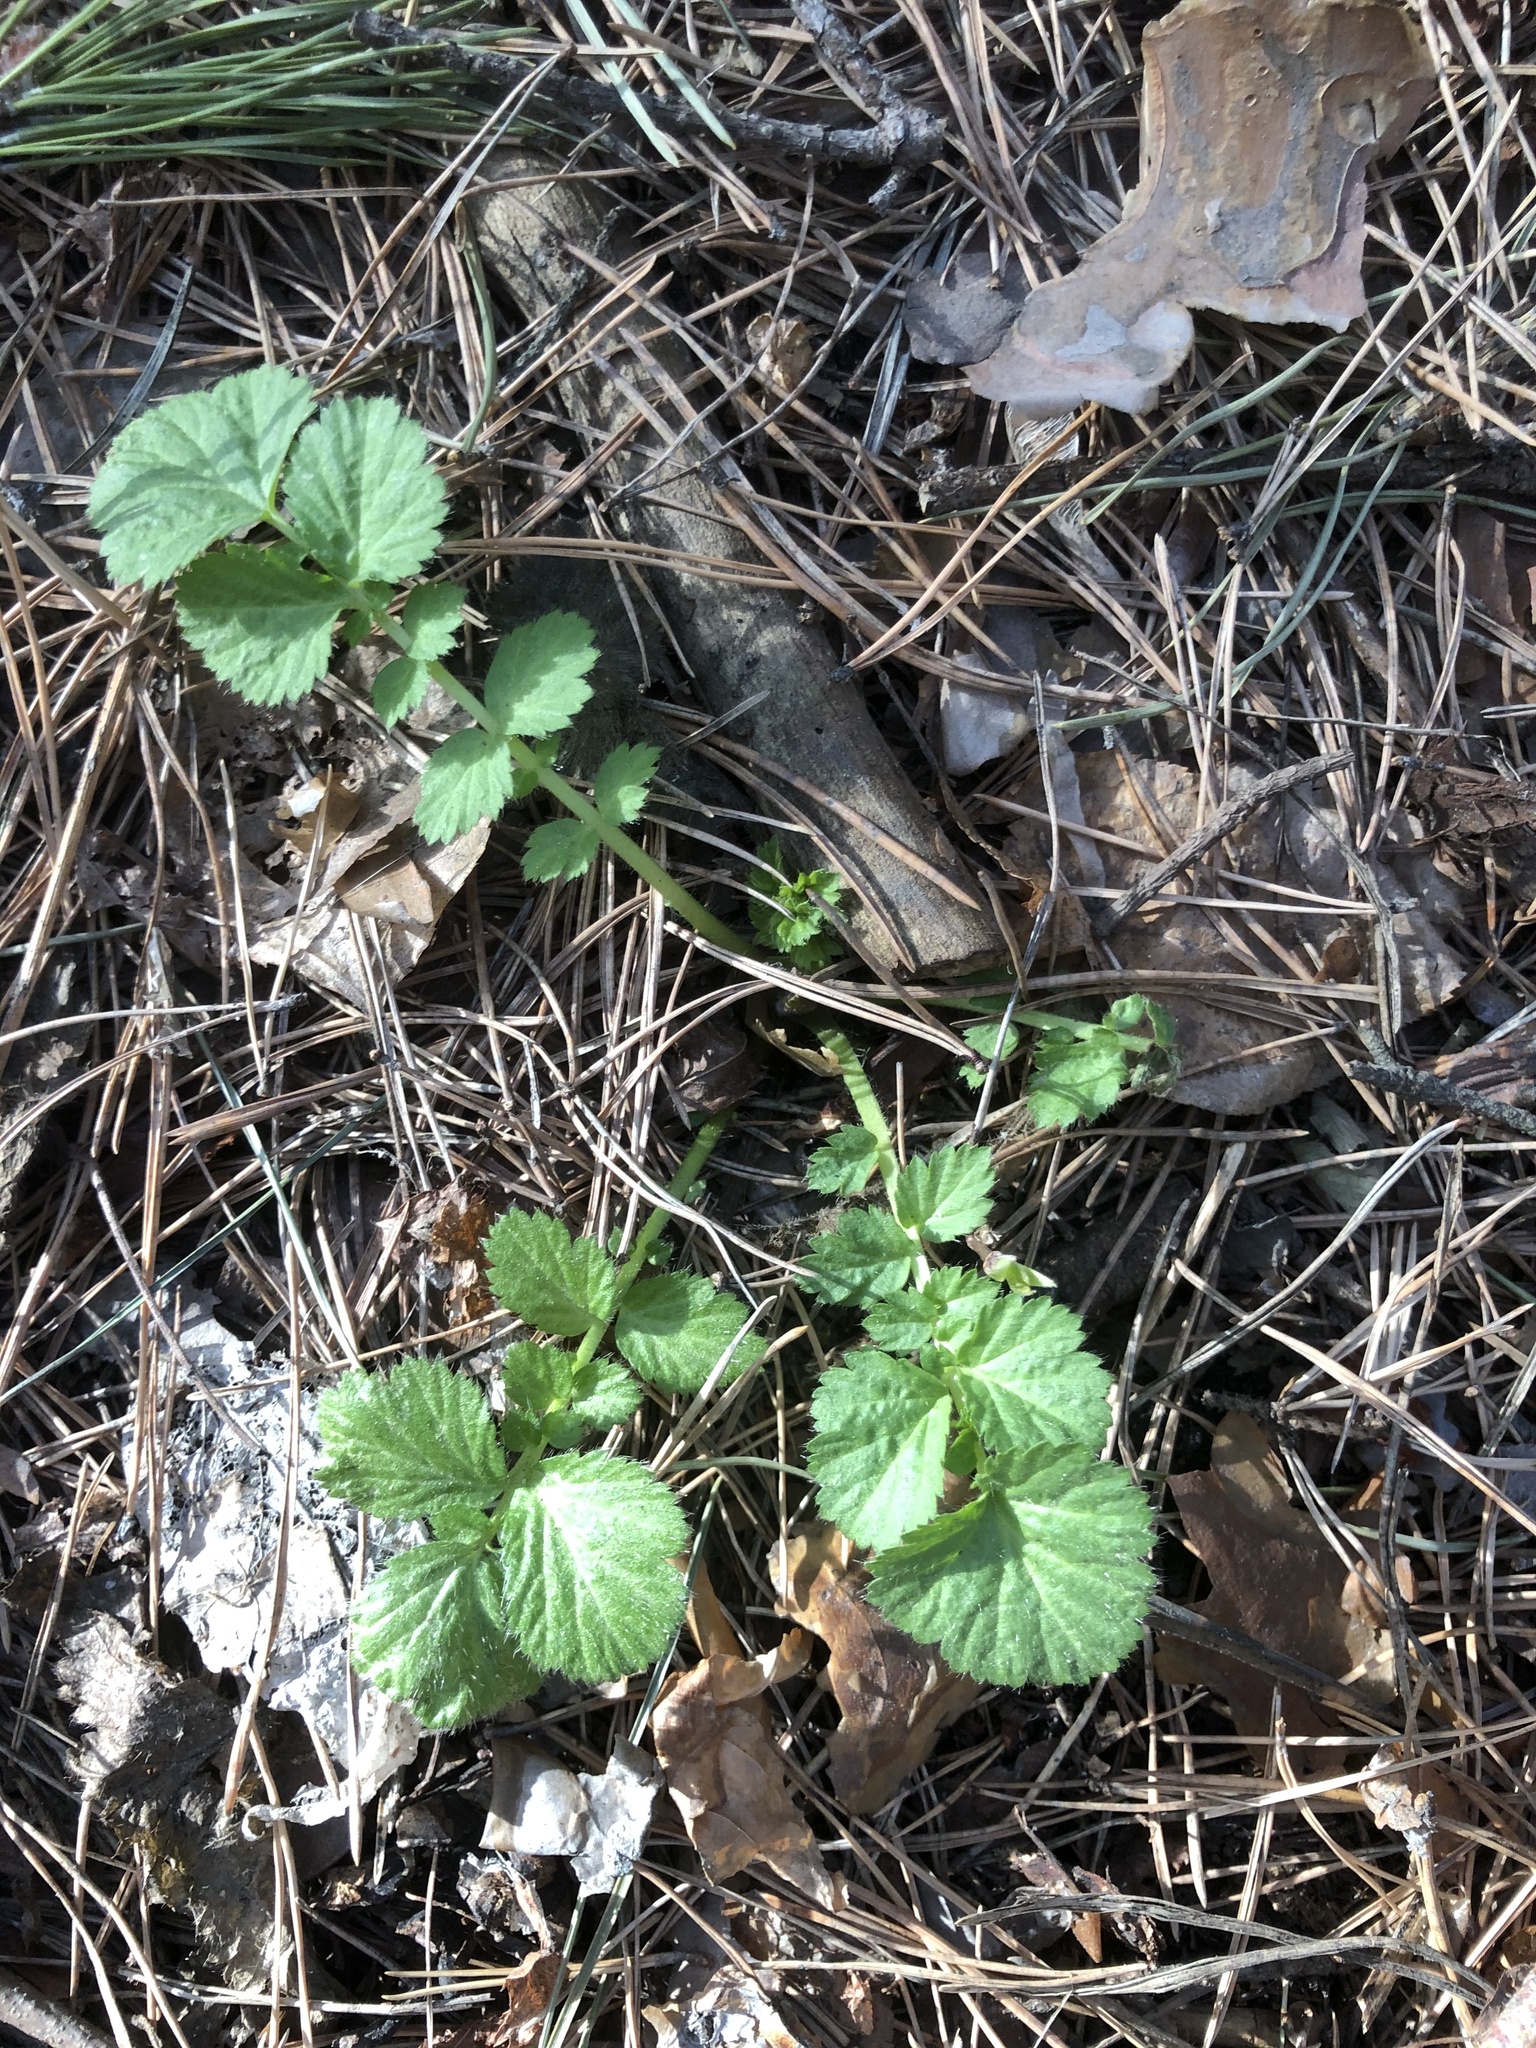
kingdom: Plantae
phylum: Tracheophyta
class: Magnoliopsida
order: Rosales
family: Rosaceae
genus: Geum
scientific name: Geum aleppicum
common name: Yellow avens
